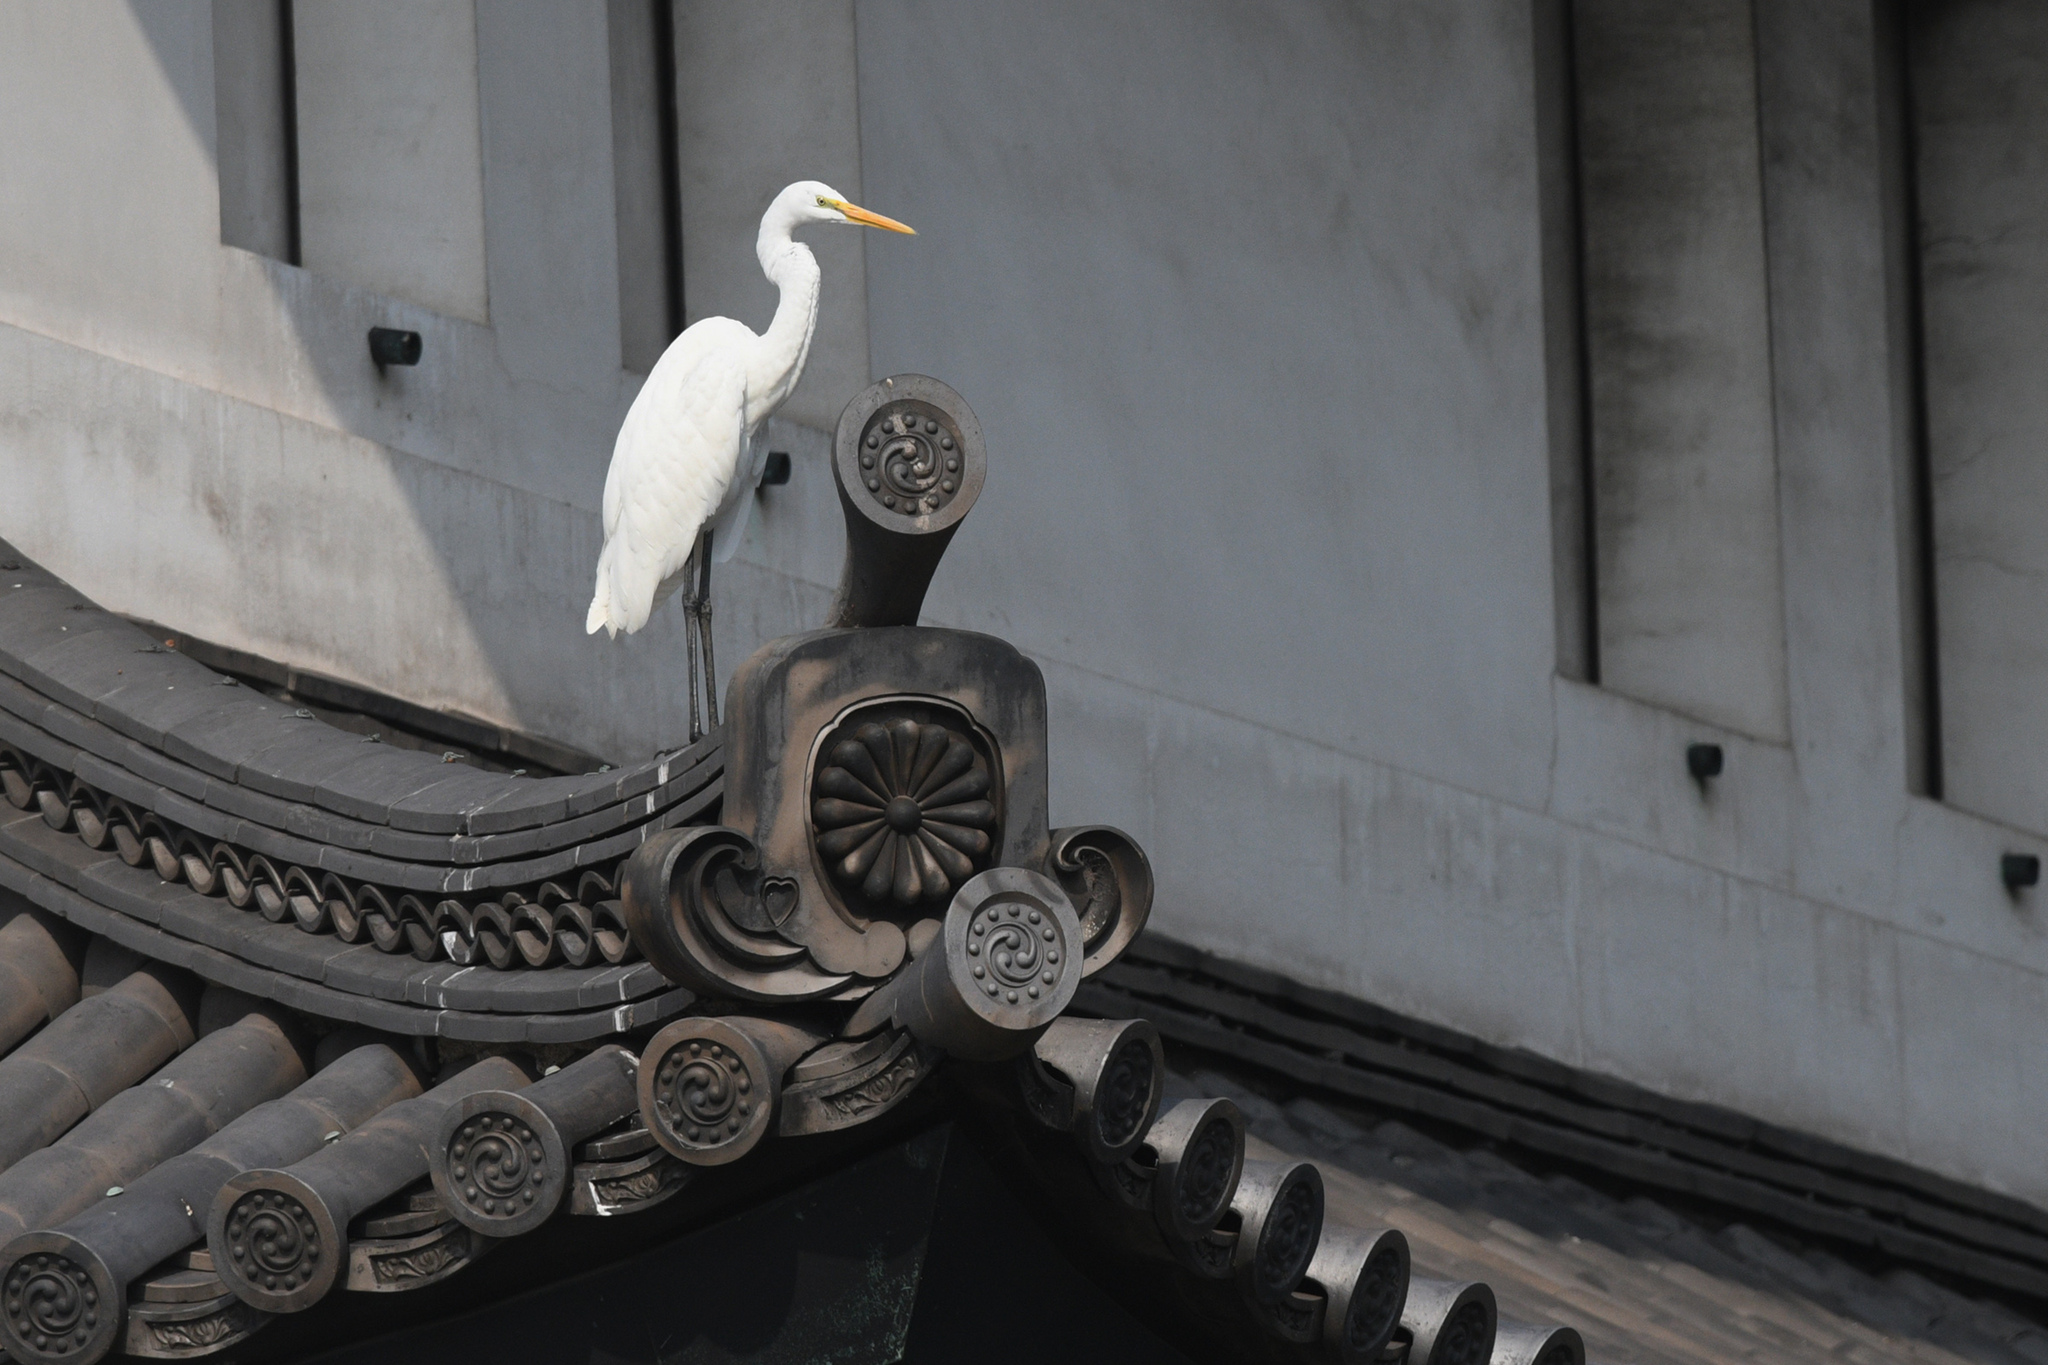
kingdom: Animalia
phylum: Chordata
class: Aves
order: Pelecaniformes
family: Ardeidae
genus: Ardea
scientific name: Ardea alba
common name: Great egret
